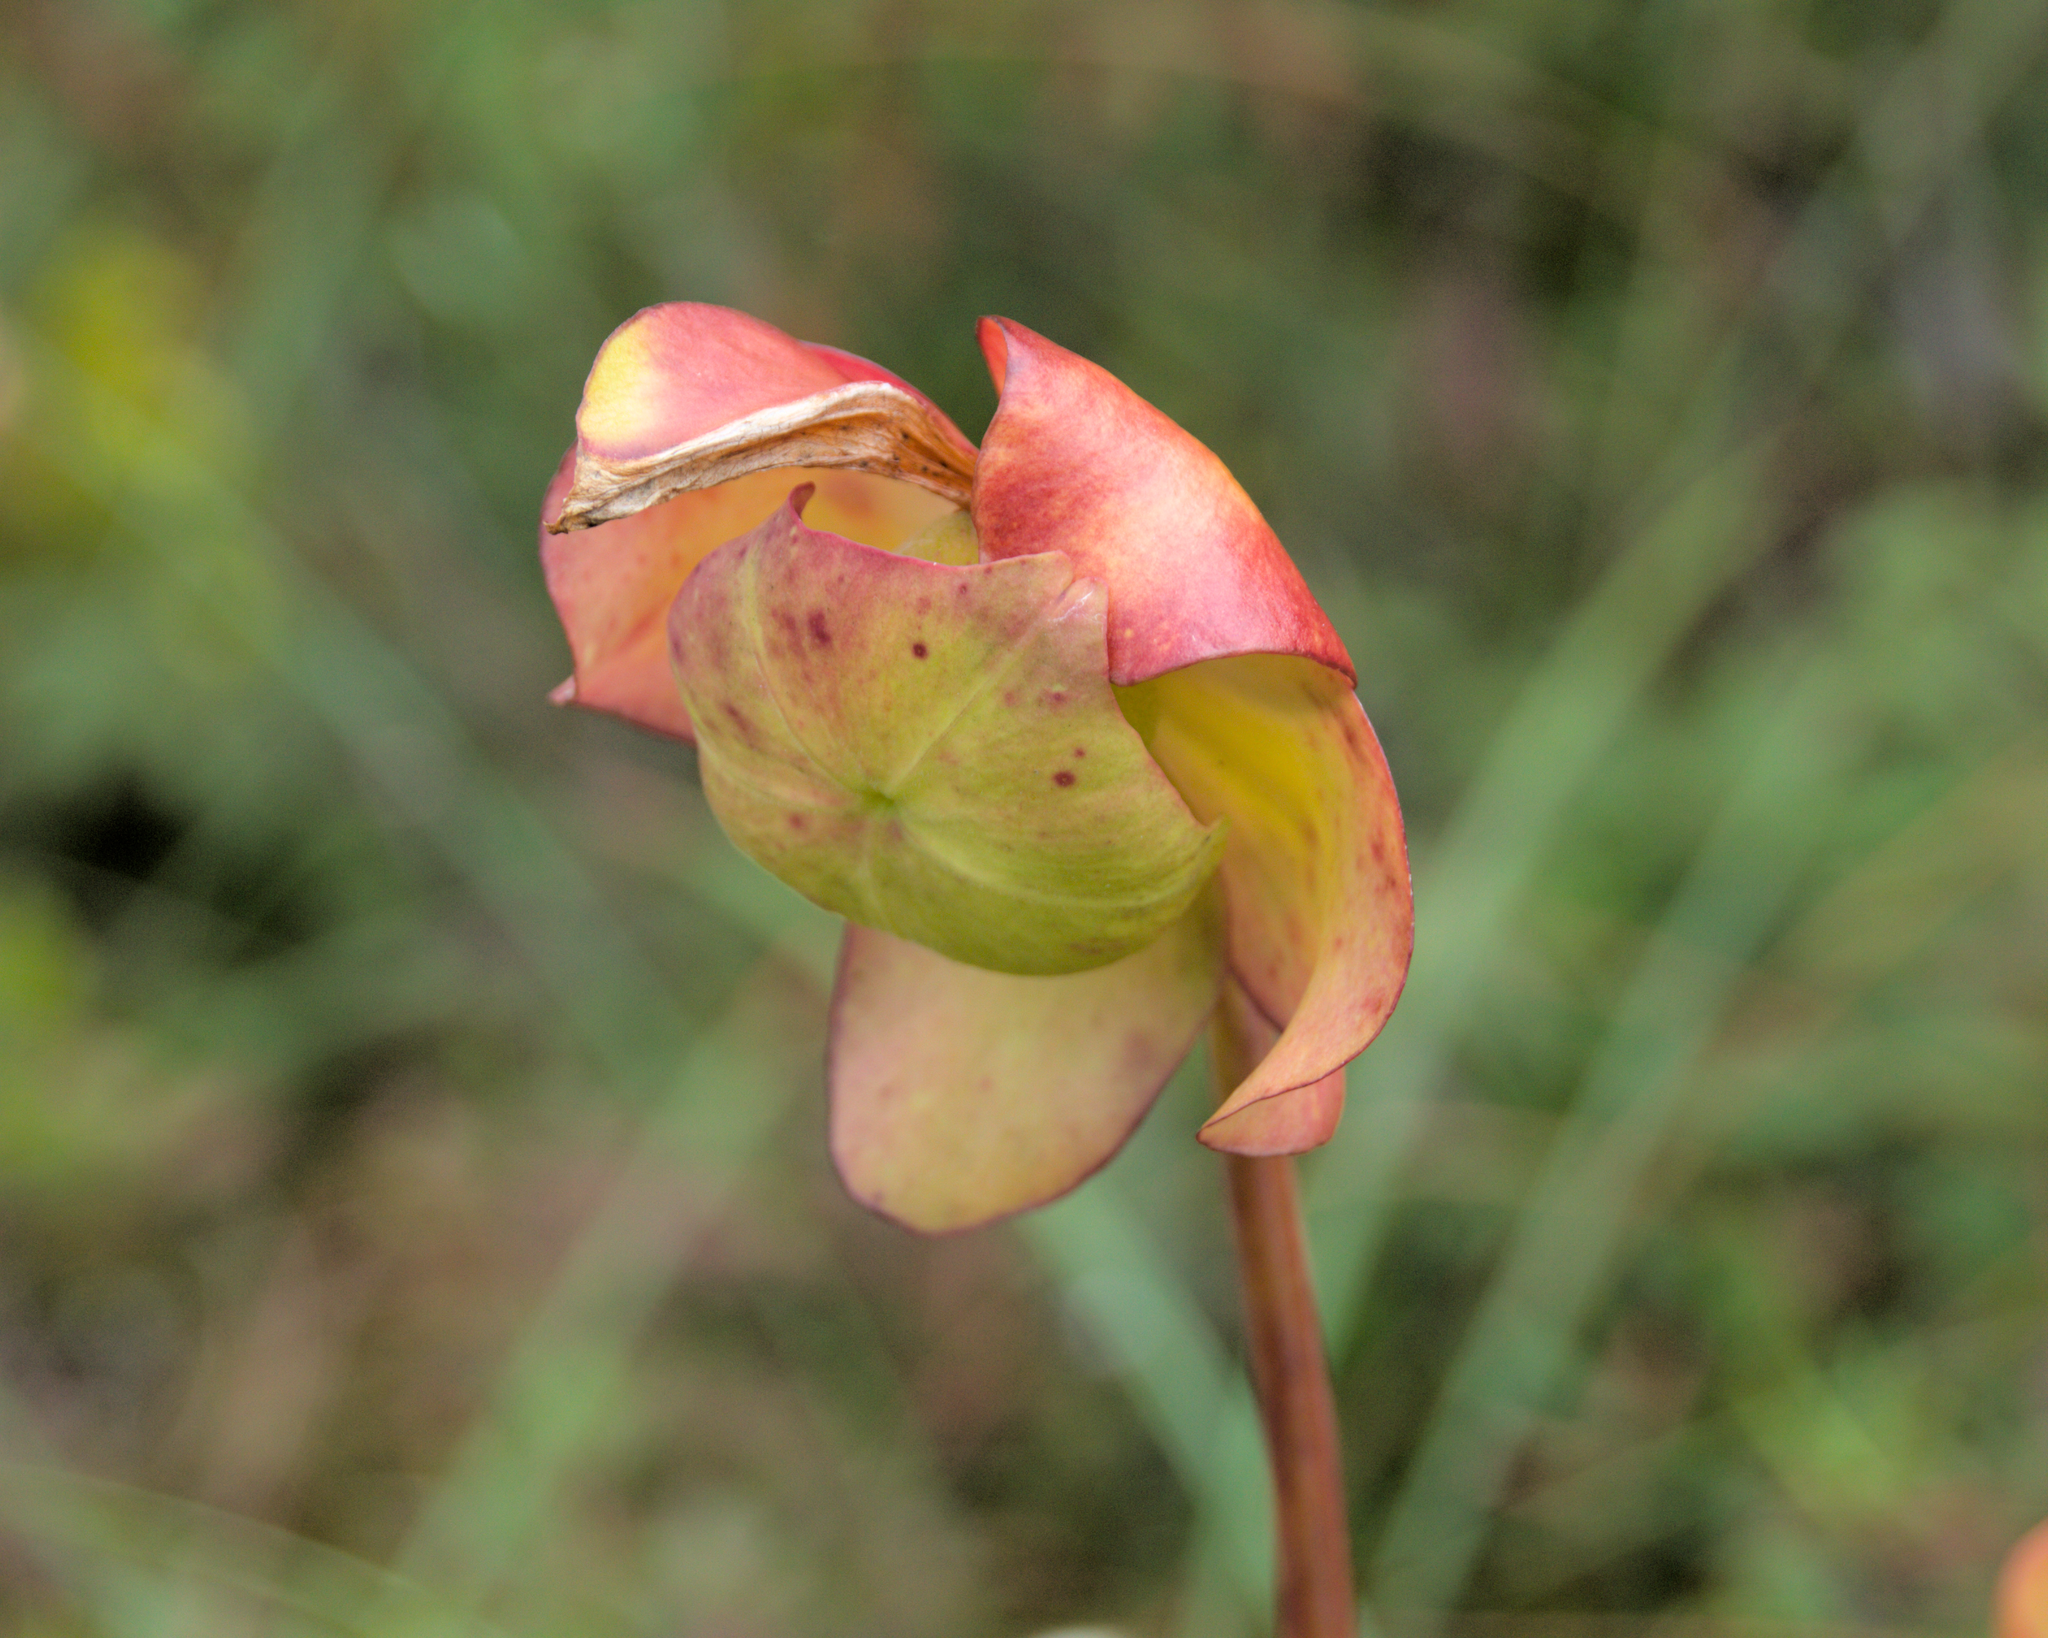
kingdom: Plantae
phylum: Tracheophyta
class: Magnoliopsida
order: Ericales
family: Sarraceniaceae
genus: Sarracenia
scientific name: Sarracenia purpurea
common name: Pitcherplant
